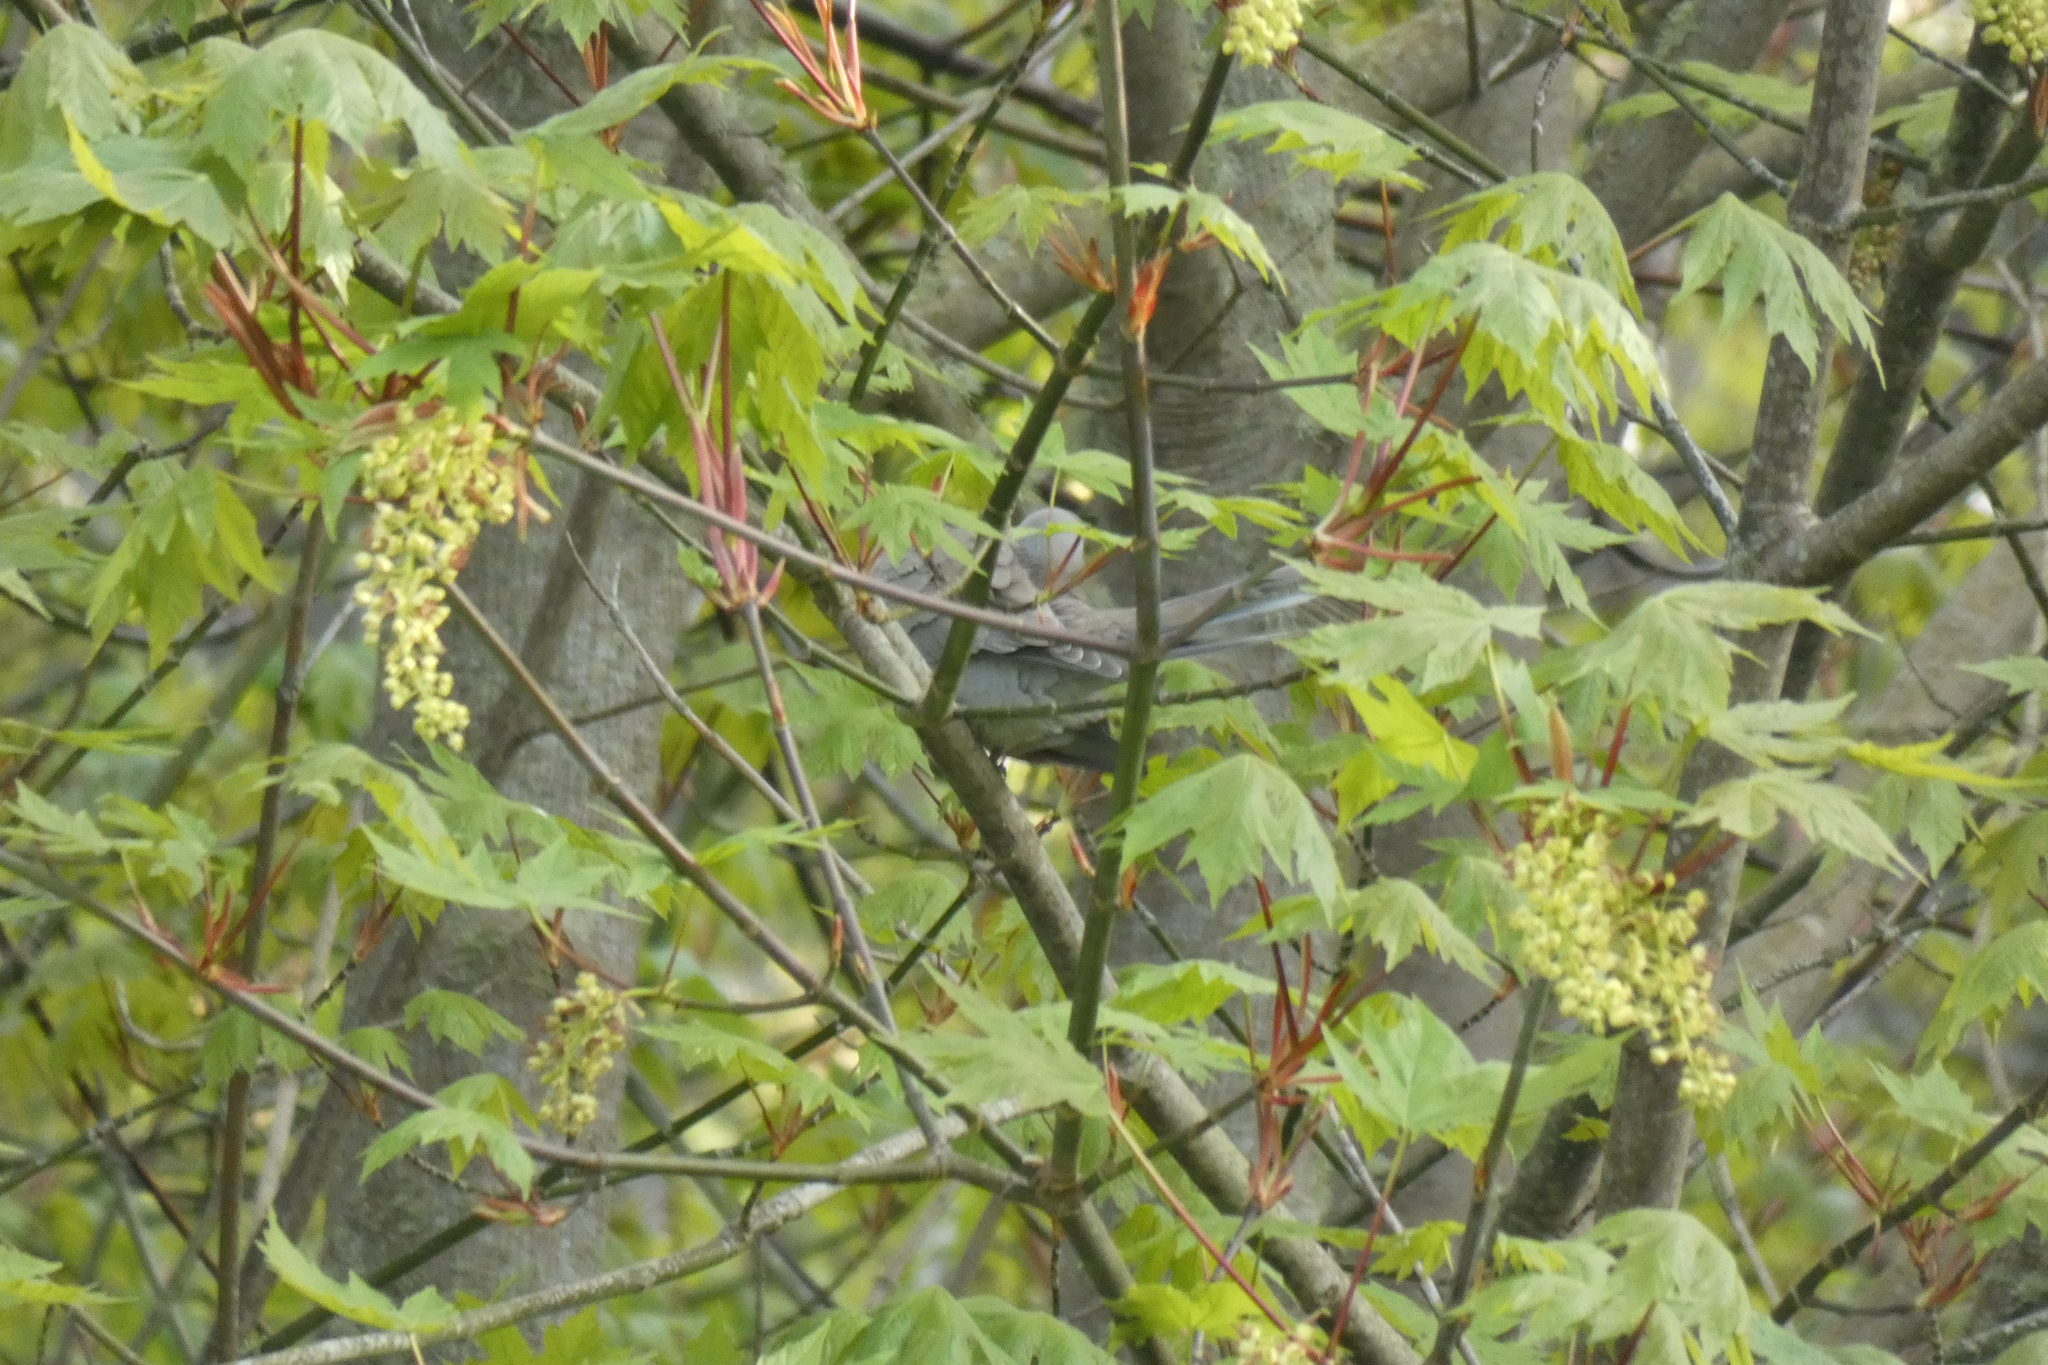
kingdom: Animalia
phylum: Chordata
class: Aves
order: Columbiformes
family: Columbidae
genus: Streptopelia
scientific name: Streptopelia decaocto
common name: Eurasian collared dove
